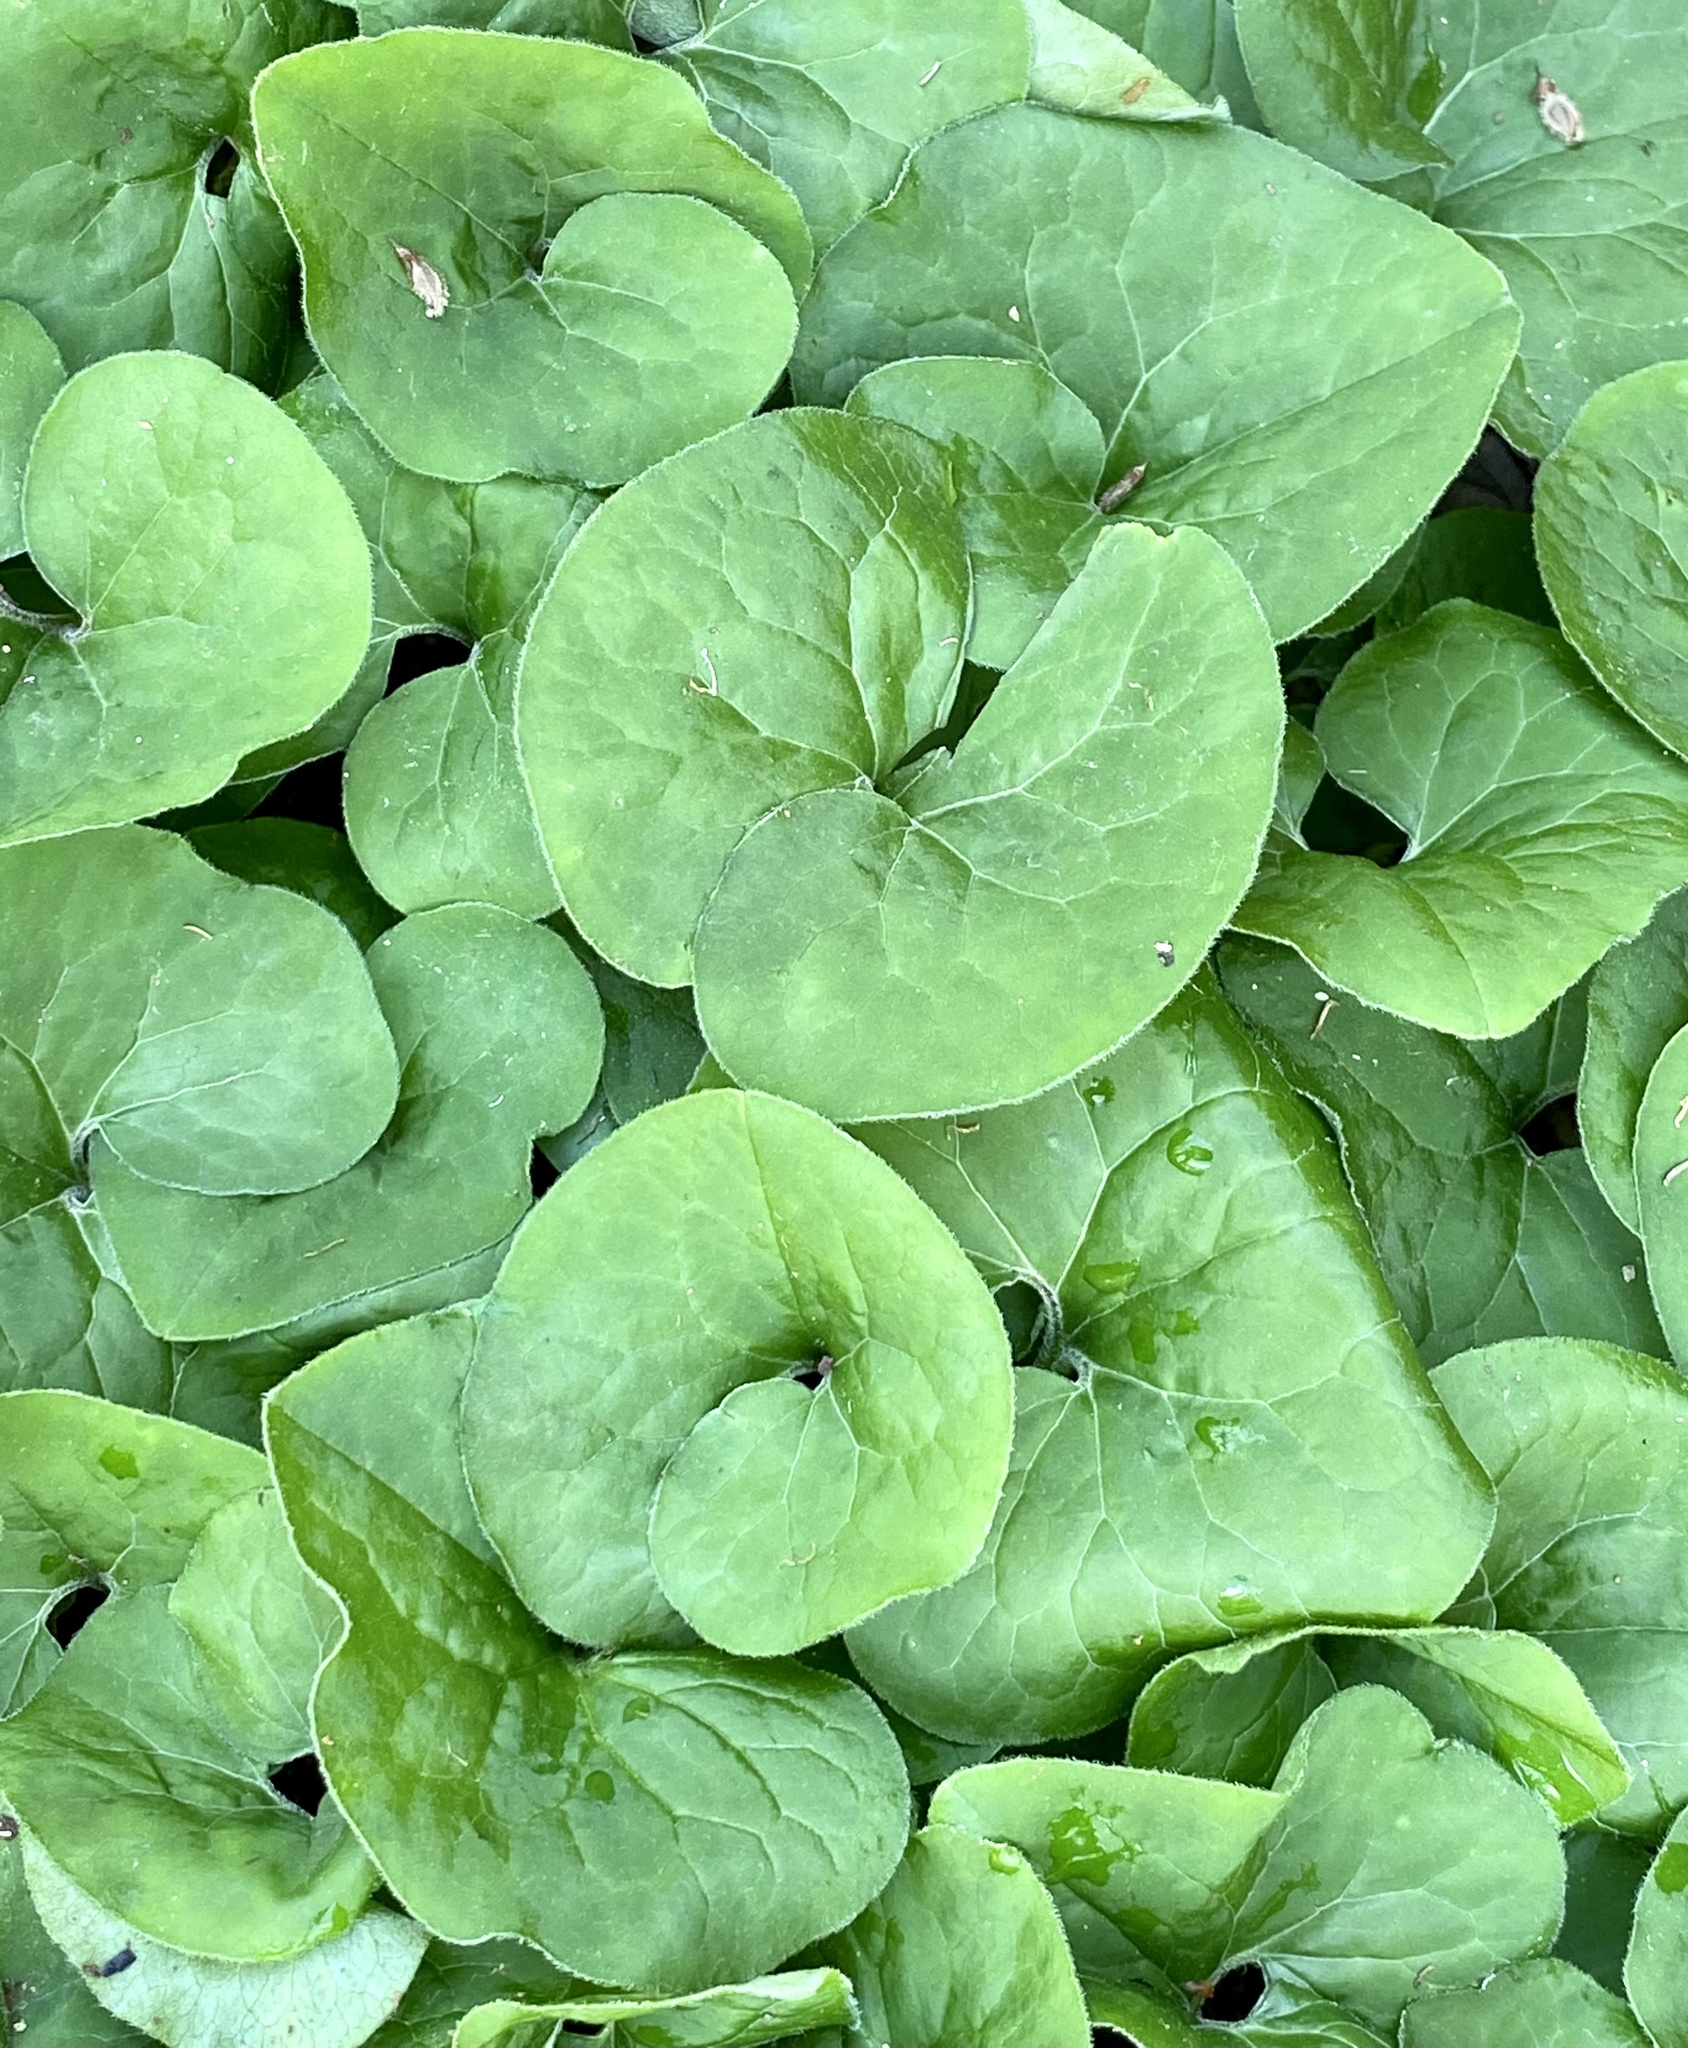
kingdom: Plantae
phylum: Tracheophyta
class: Magnoliopsida
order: Piperales
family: Aristolochiaceae
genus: Asarum
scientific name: Asarum canadense
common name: Wild ginger
